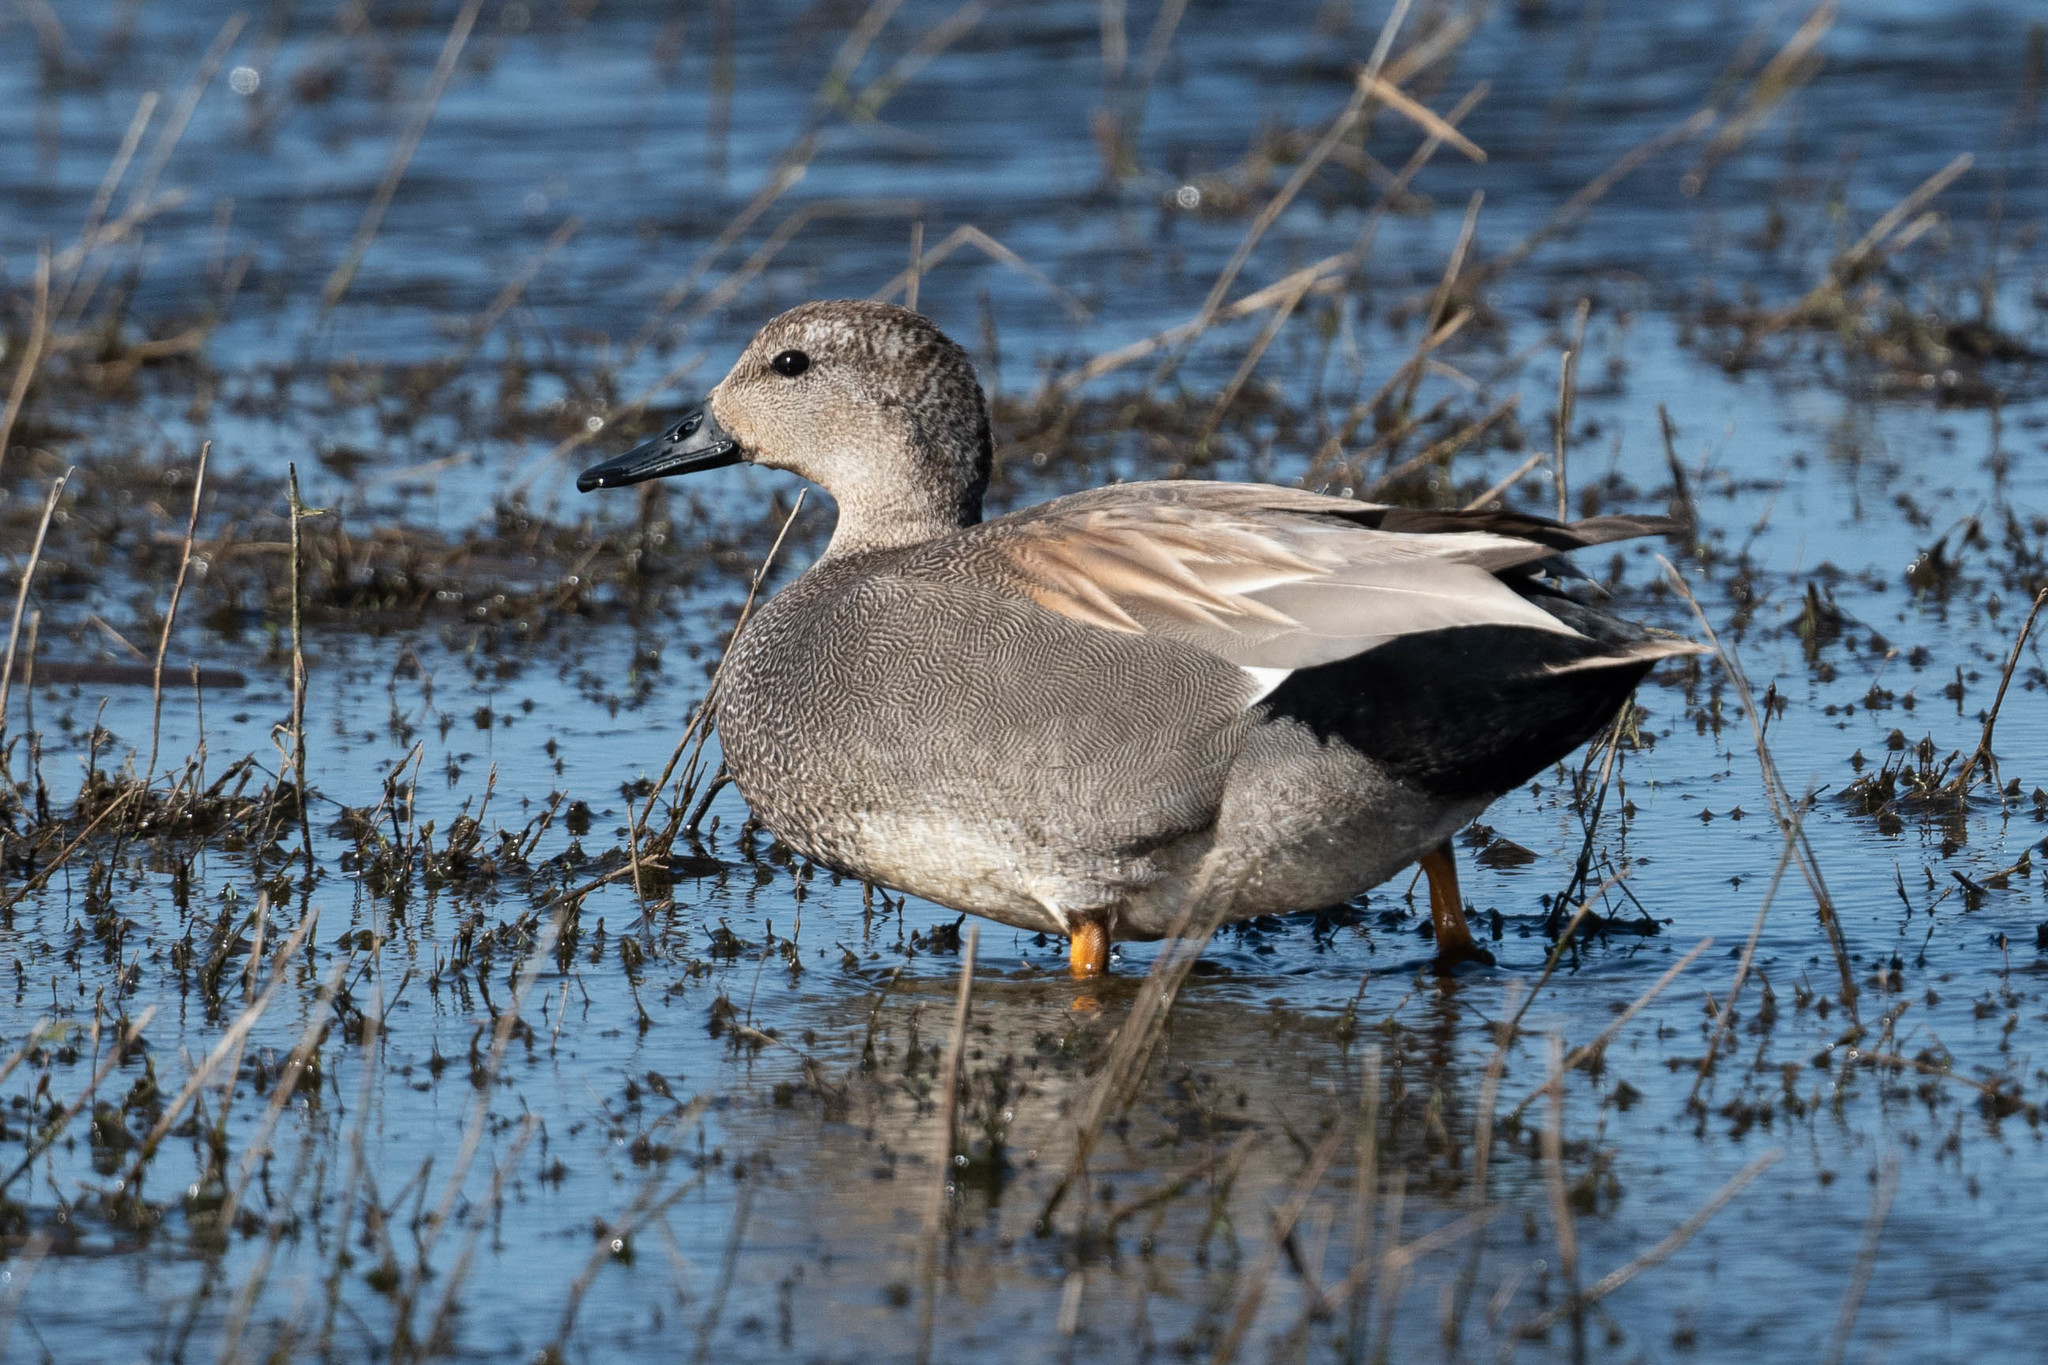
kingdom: Animalia
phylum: Chordata
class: Aves
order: Anseriformes
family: Anatidae
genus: Mareca
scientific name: Mareca strepera
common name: Gadwall
